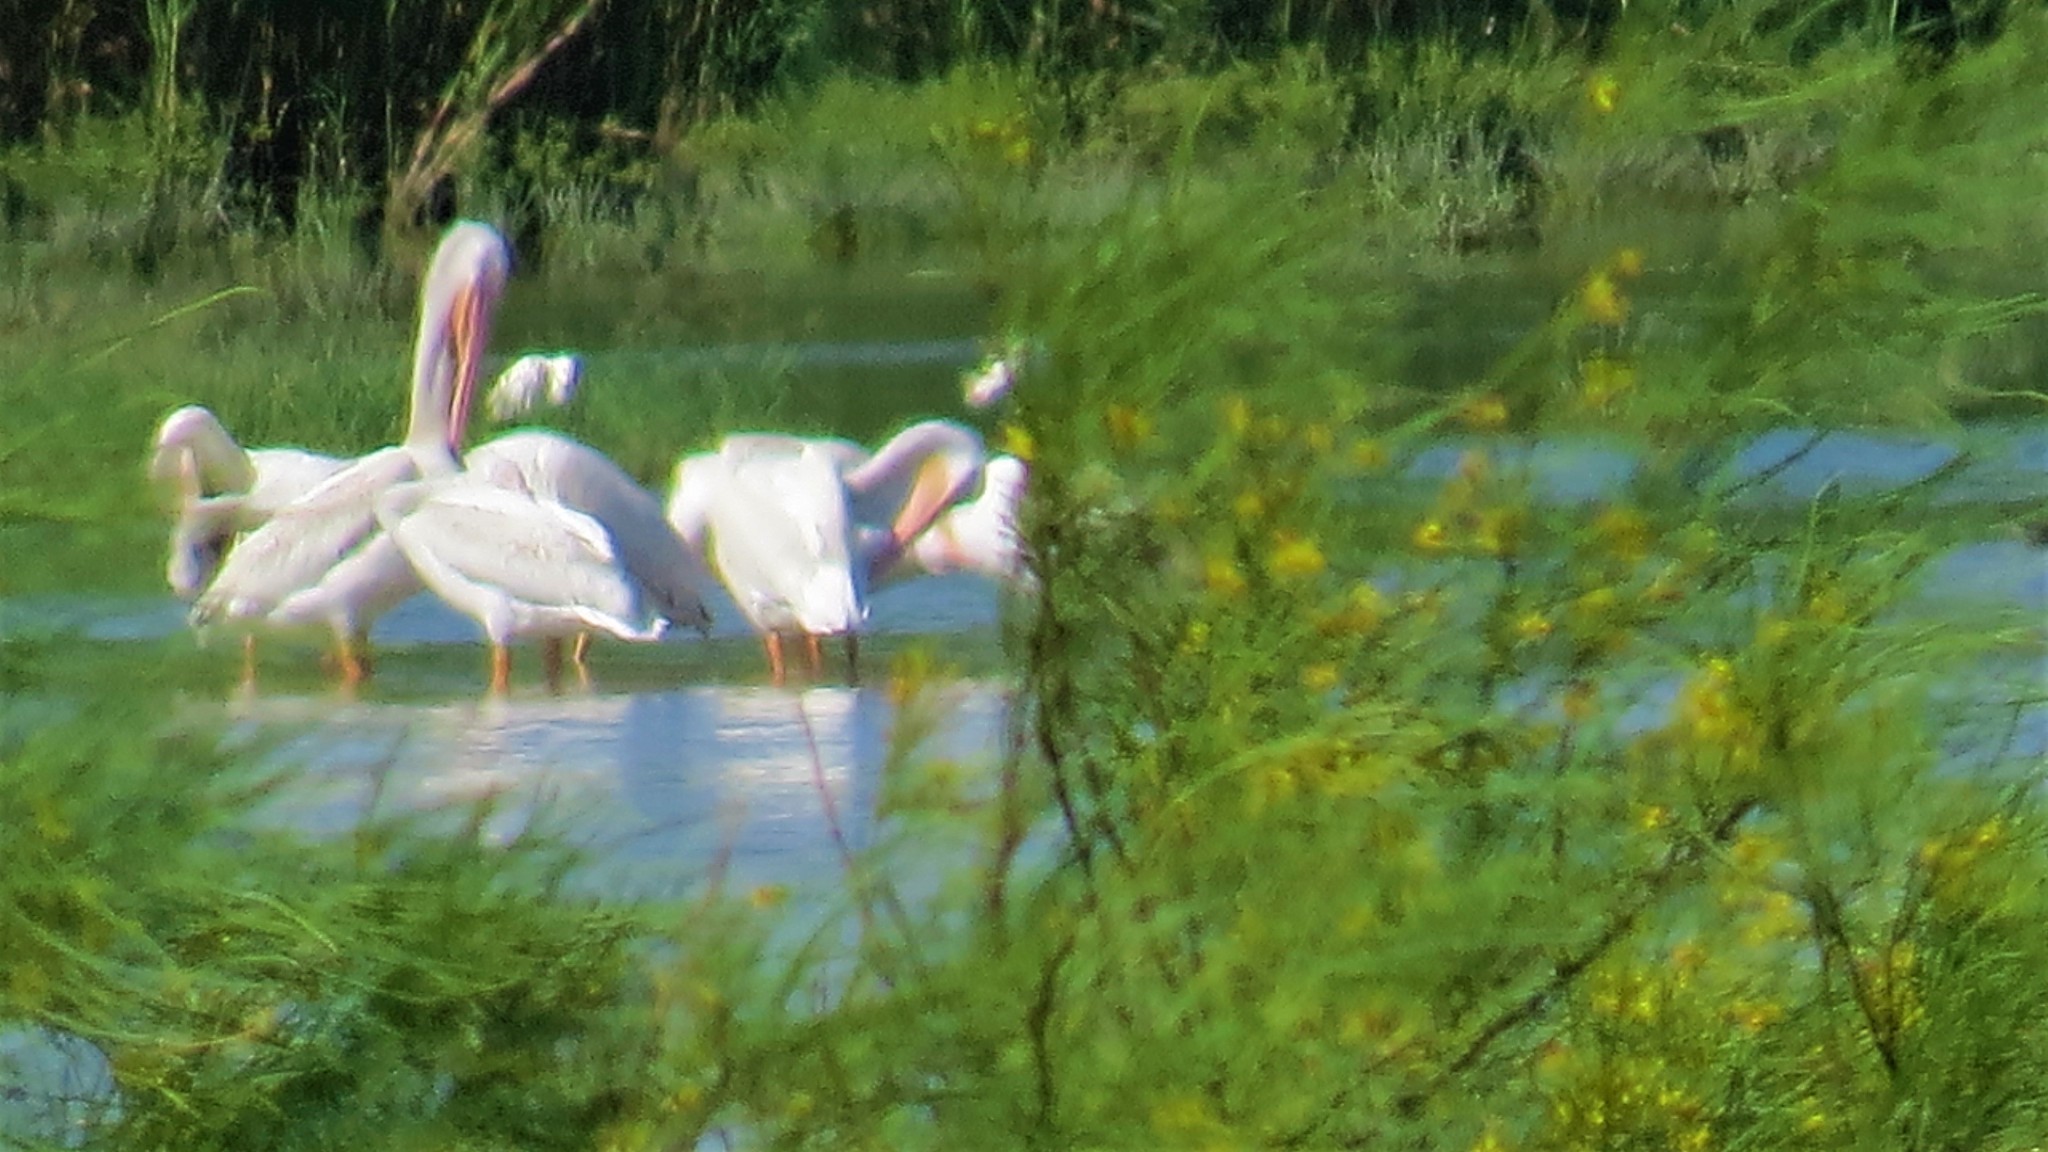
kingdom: Animalia
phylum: Chordata
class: Aves
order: Pelecaniformes
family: Pelecanidae
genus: Pelecanus
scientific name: Pelecanus erythrorhynchos
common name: American white pelican
